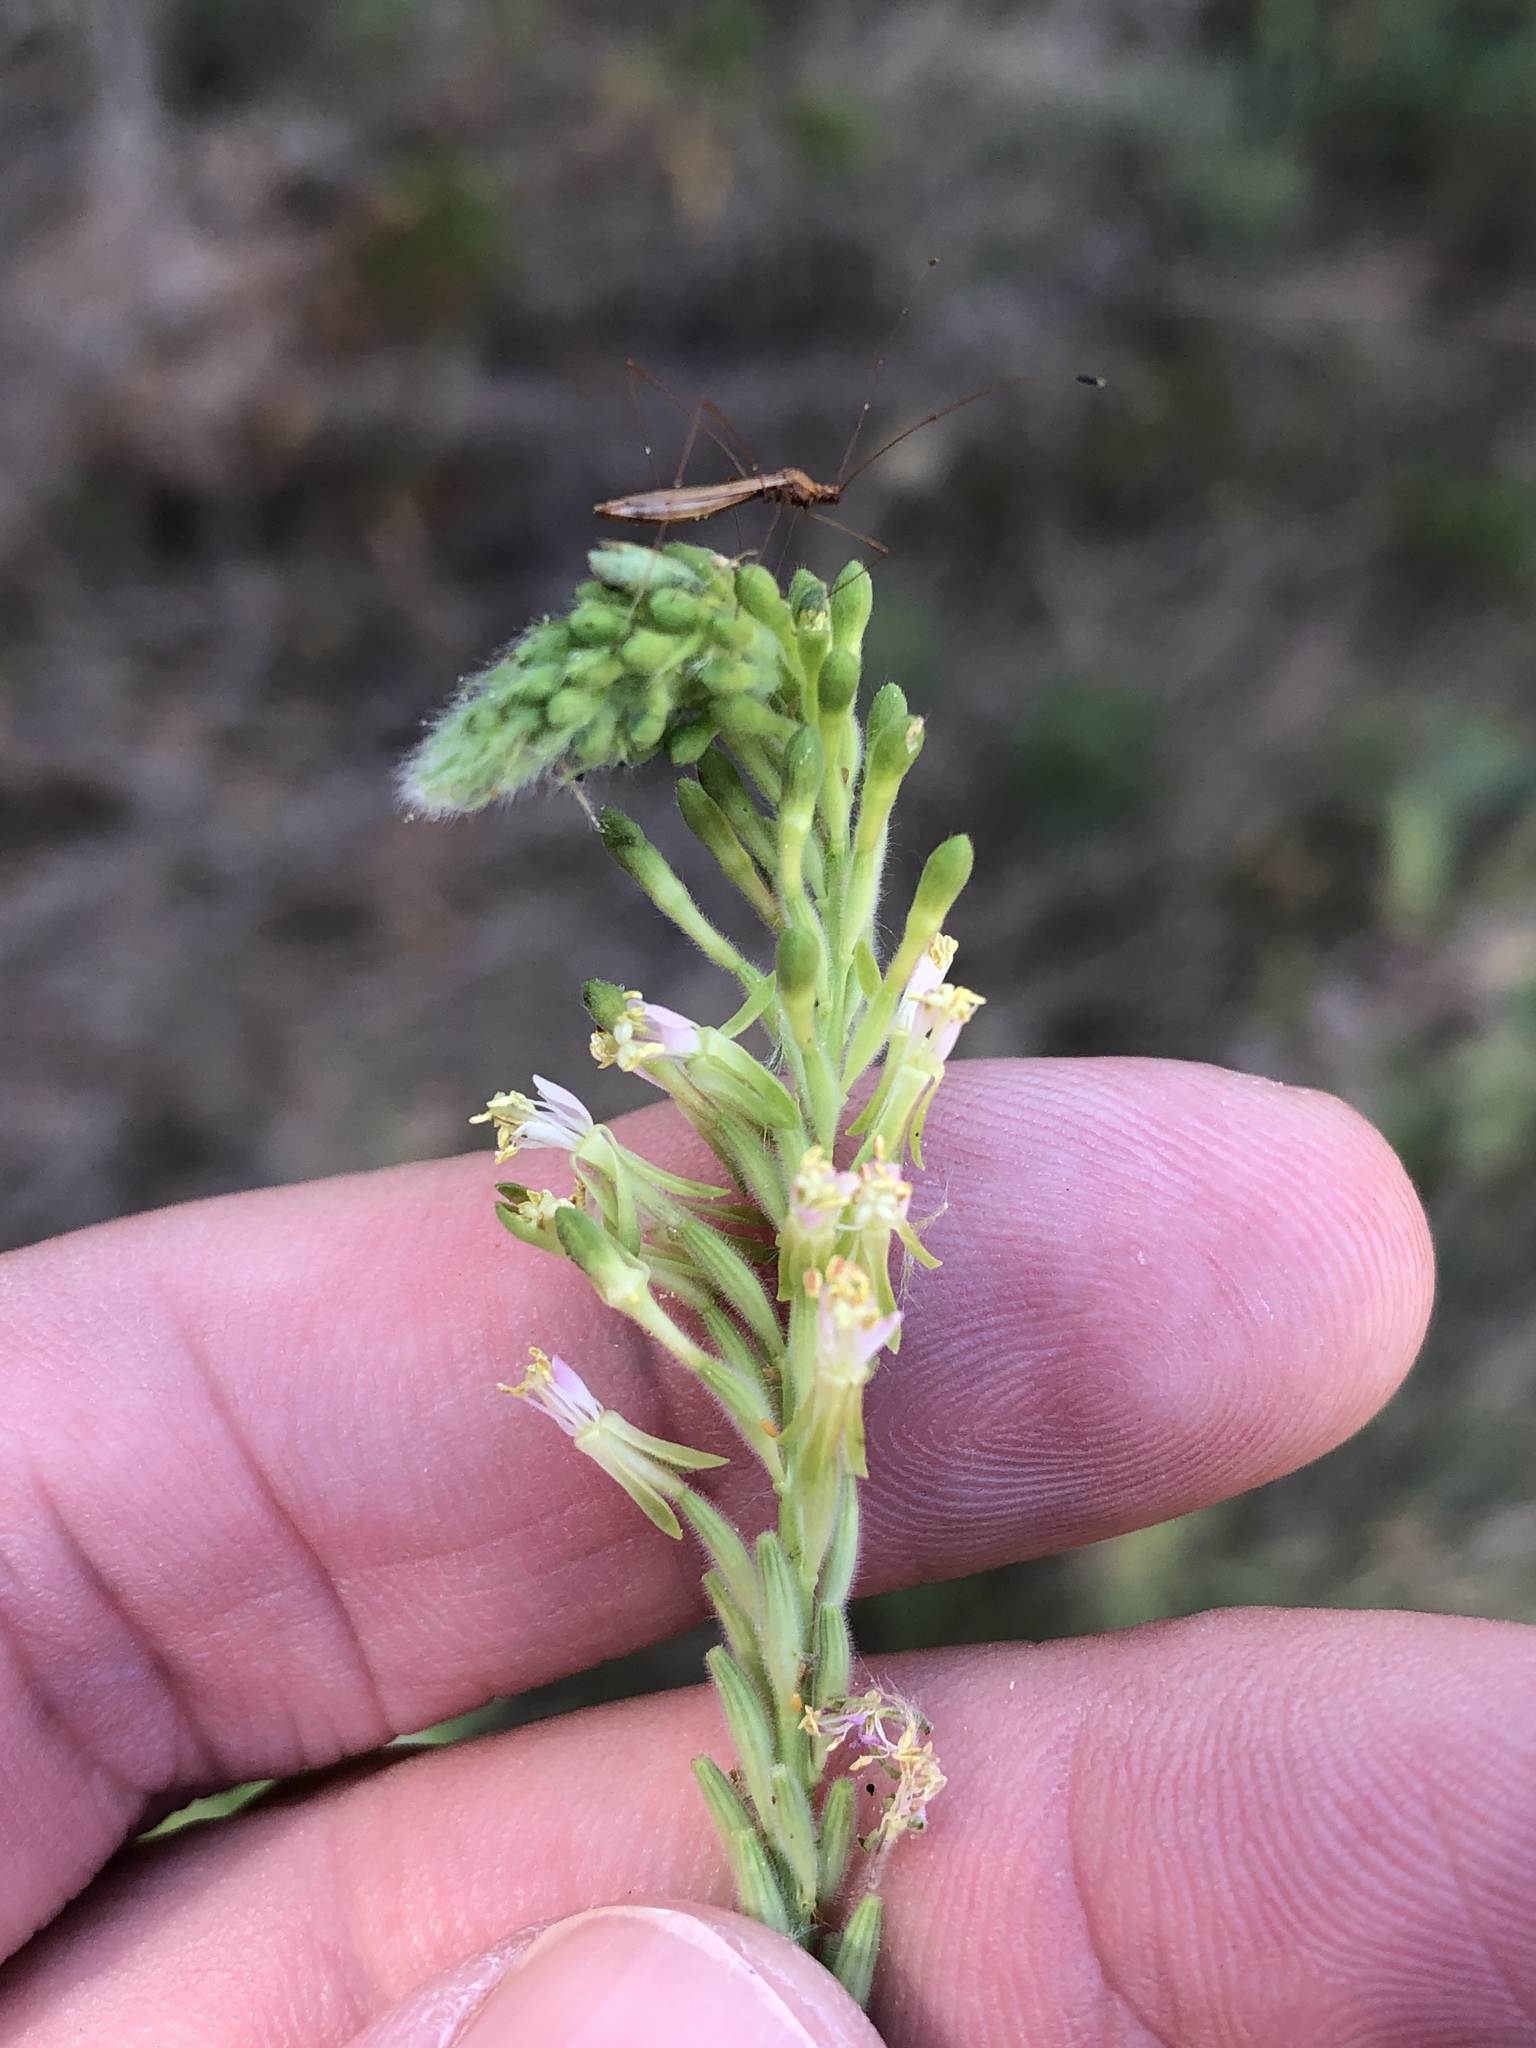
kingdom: Plantae
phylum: Tracheophyta
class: Magnoliopsida
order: Myrtales
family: Onagraceae
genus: Oenothera
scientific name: Oenothera curtiflora
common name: Velvetweed
